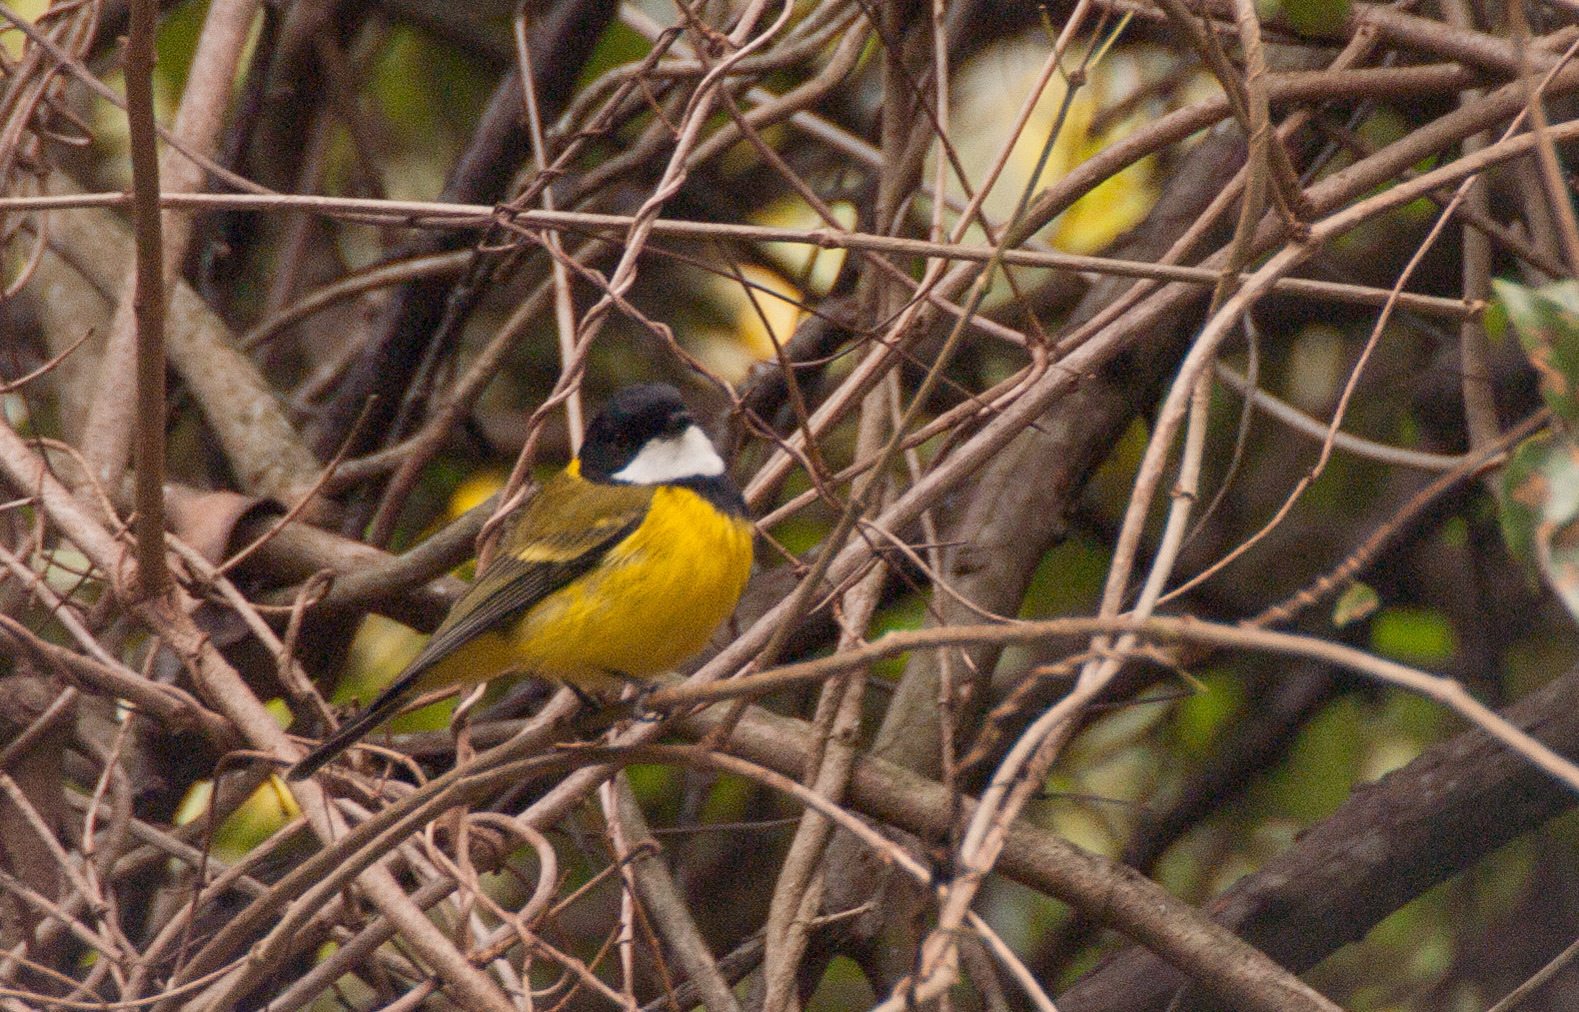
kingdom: Animalia
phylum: Chordata
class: Aves
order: Passeriformes
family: Pachycephalidae
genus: Pachycephala
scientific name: Pachycephala pectoralis
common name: Australian golden whistler
